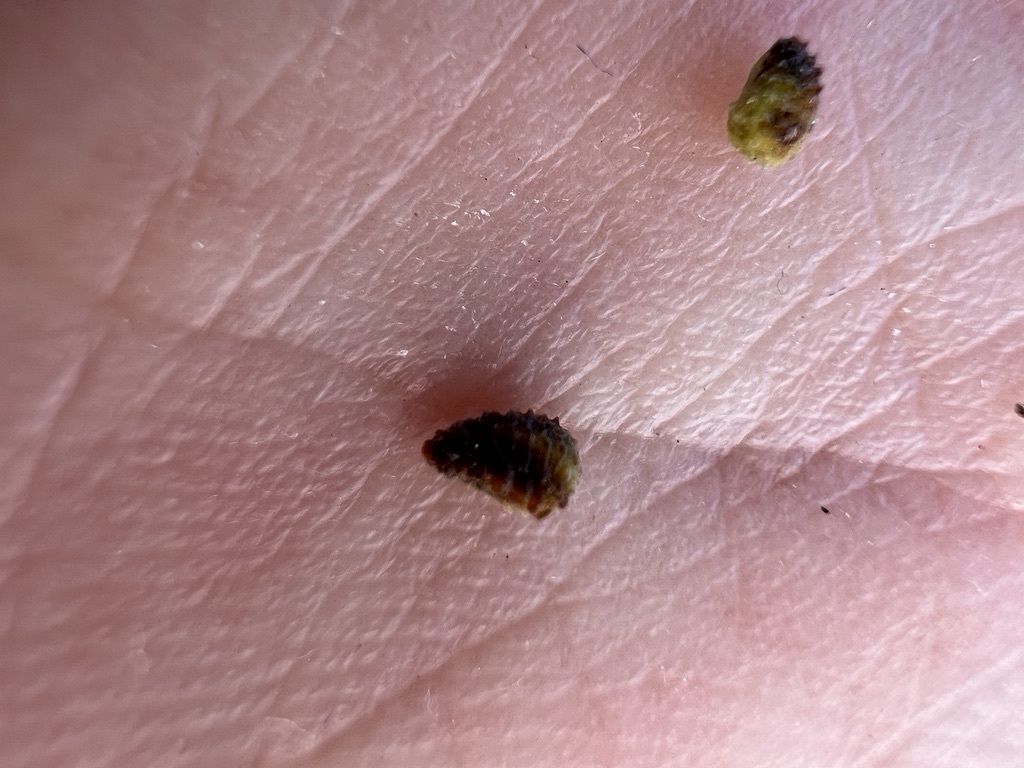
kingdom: Plantae
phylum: Tracheophyta
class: Magnoliopsida
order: Boraginales
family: Boraginaceae
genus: Amsinckia
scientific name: Amsinckia menziesii
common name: Menzies' fiddleneck
